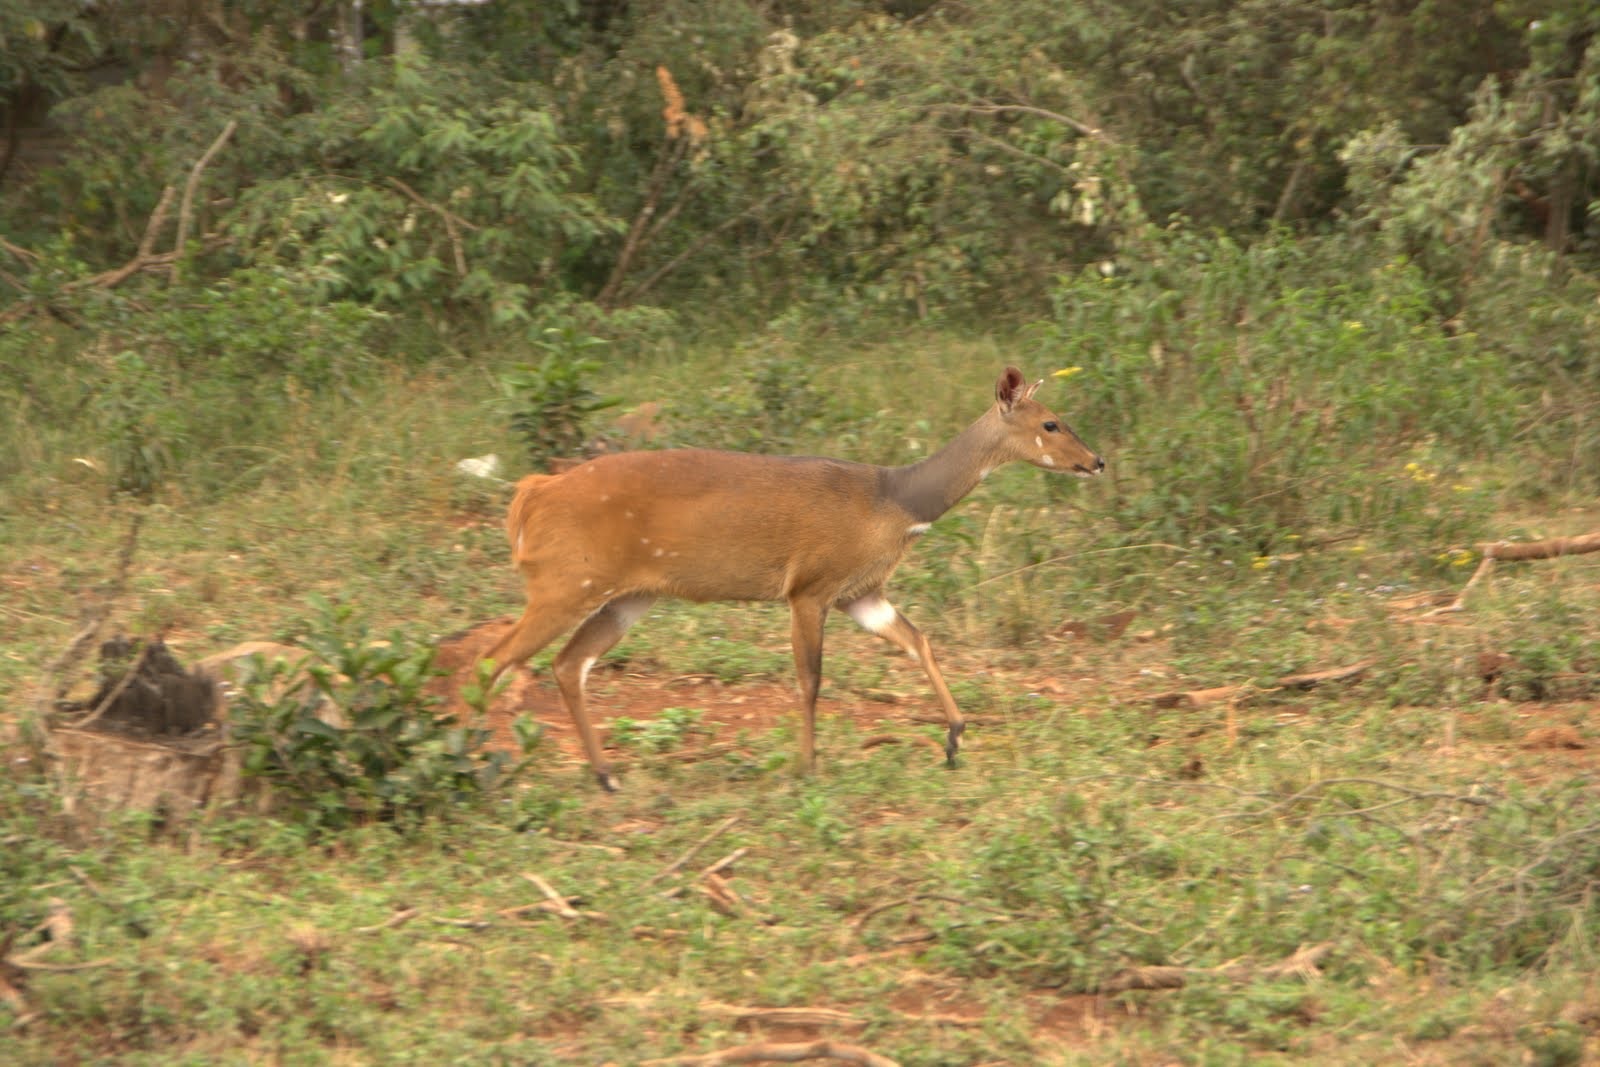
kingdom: Animalia
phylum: Chordata
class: Mammalia
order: Artiodactyla
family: Bovidae
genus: Tragelaphus
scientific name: Tragelaphus scriptus
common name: Bushbuck
